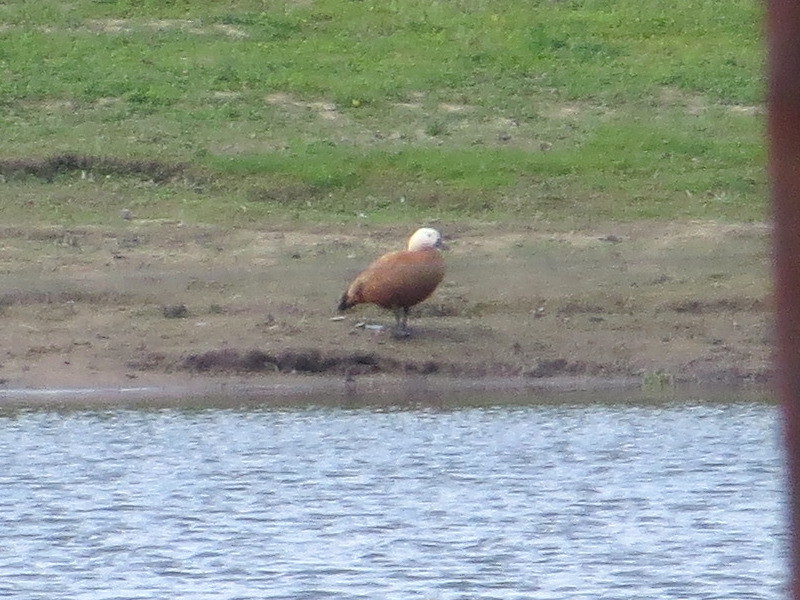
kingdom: Animalia
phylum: Chordata
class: Aves
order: Anseriformes
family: Anatidae
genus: Tadorna
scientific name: Tadorna ferruginea
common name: Ruddy shelduck
